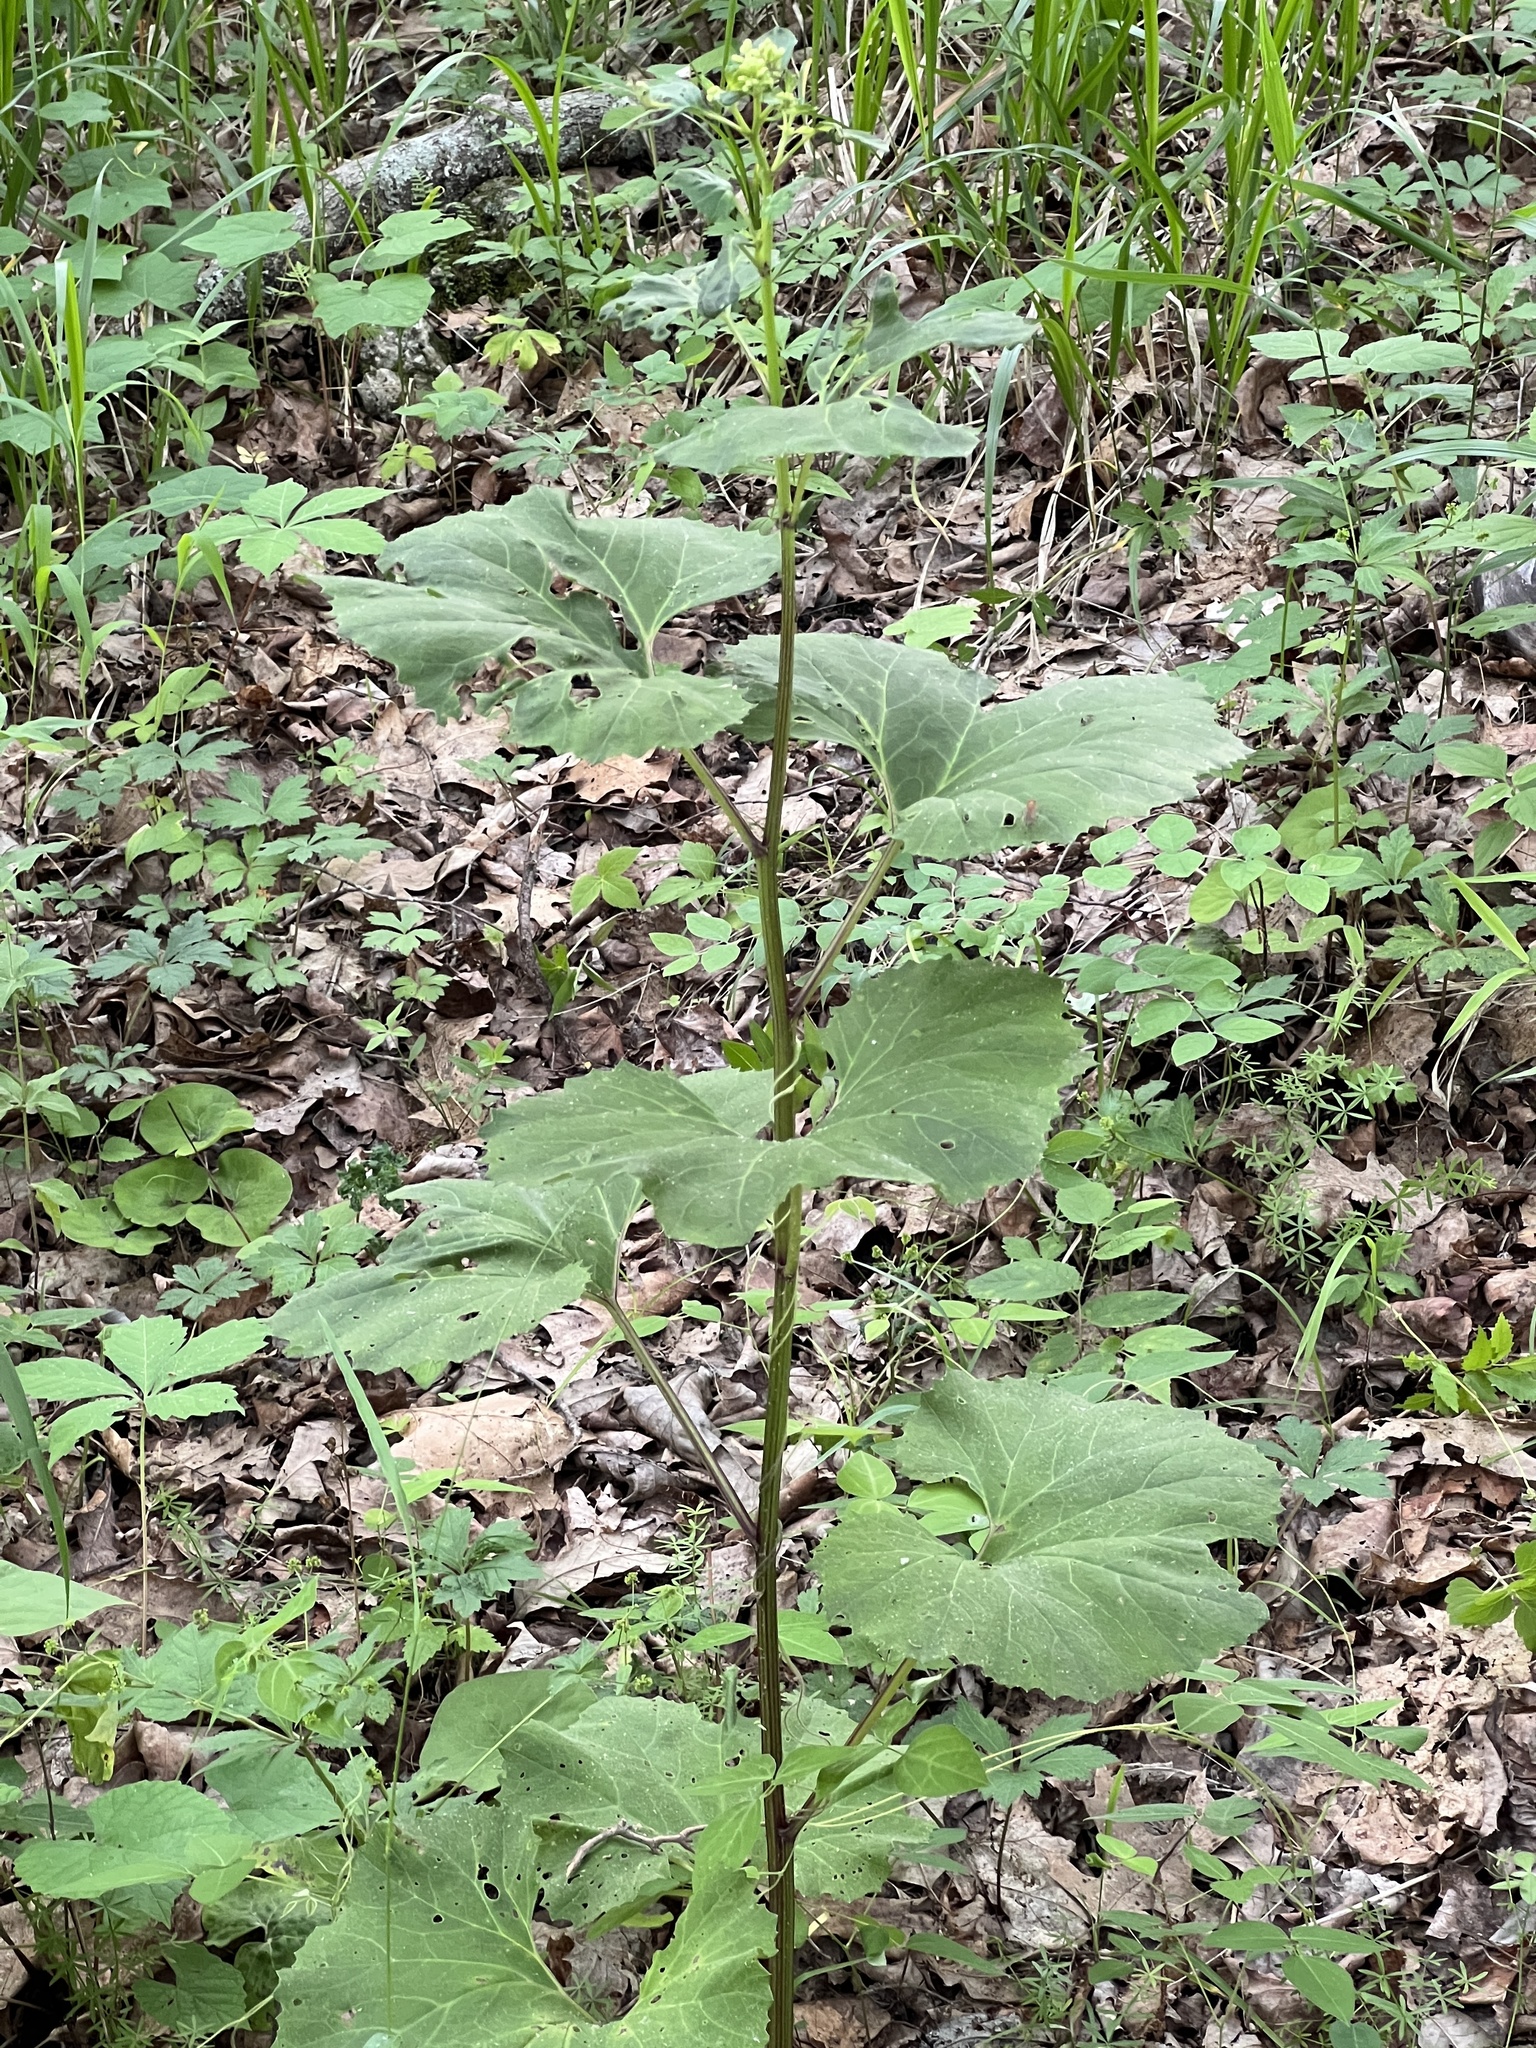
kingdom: Plantae
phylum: Tracheophyta
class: Magnoliopsida
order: Asterales
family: Asteraceae
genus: Arnoglossum
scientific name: Arnoglossum reniforme
